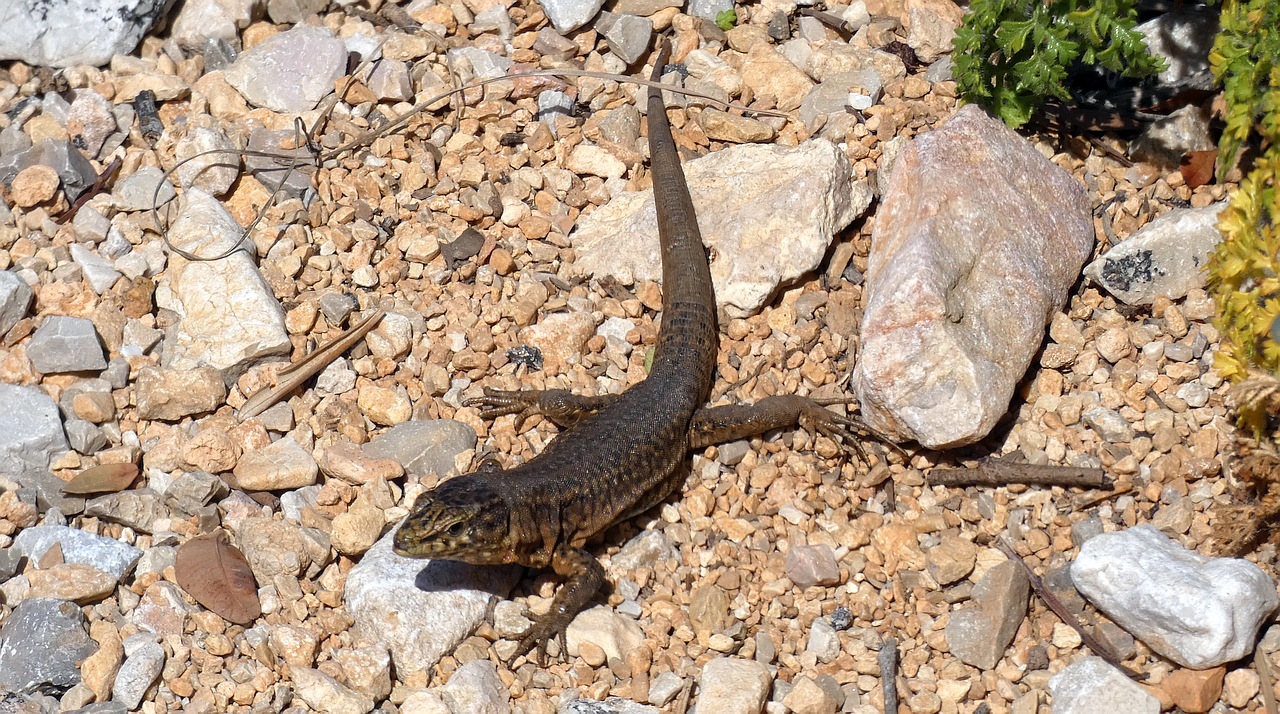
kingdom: Animalia
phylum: Chordata
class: Squamata
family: Lacertidae
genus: Podarcis
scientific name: Podarcis lilfordi
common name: Belearic lizard
